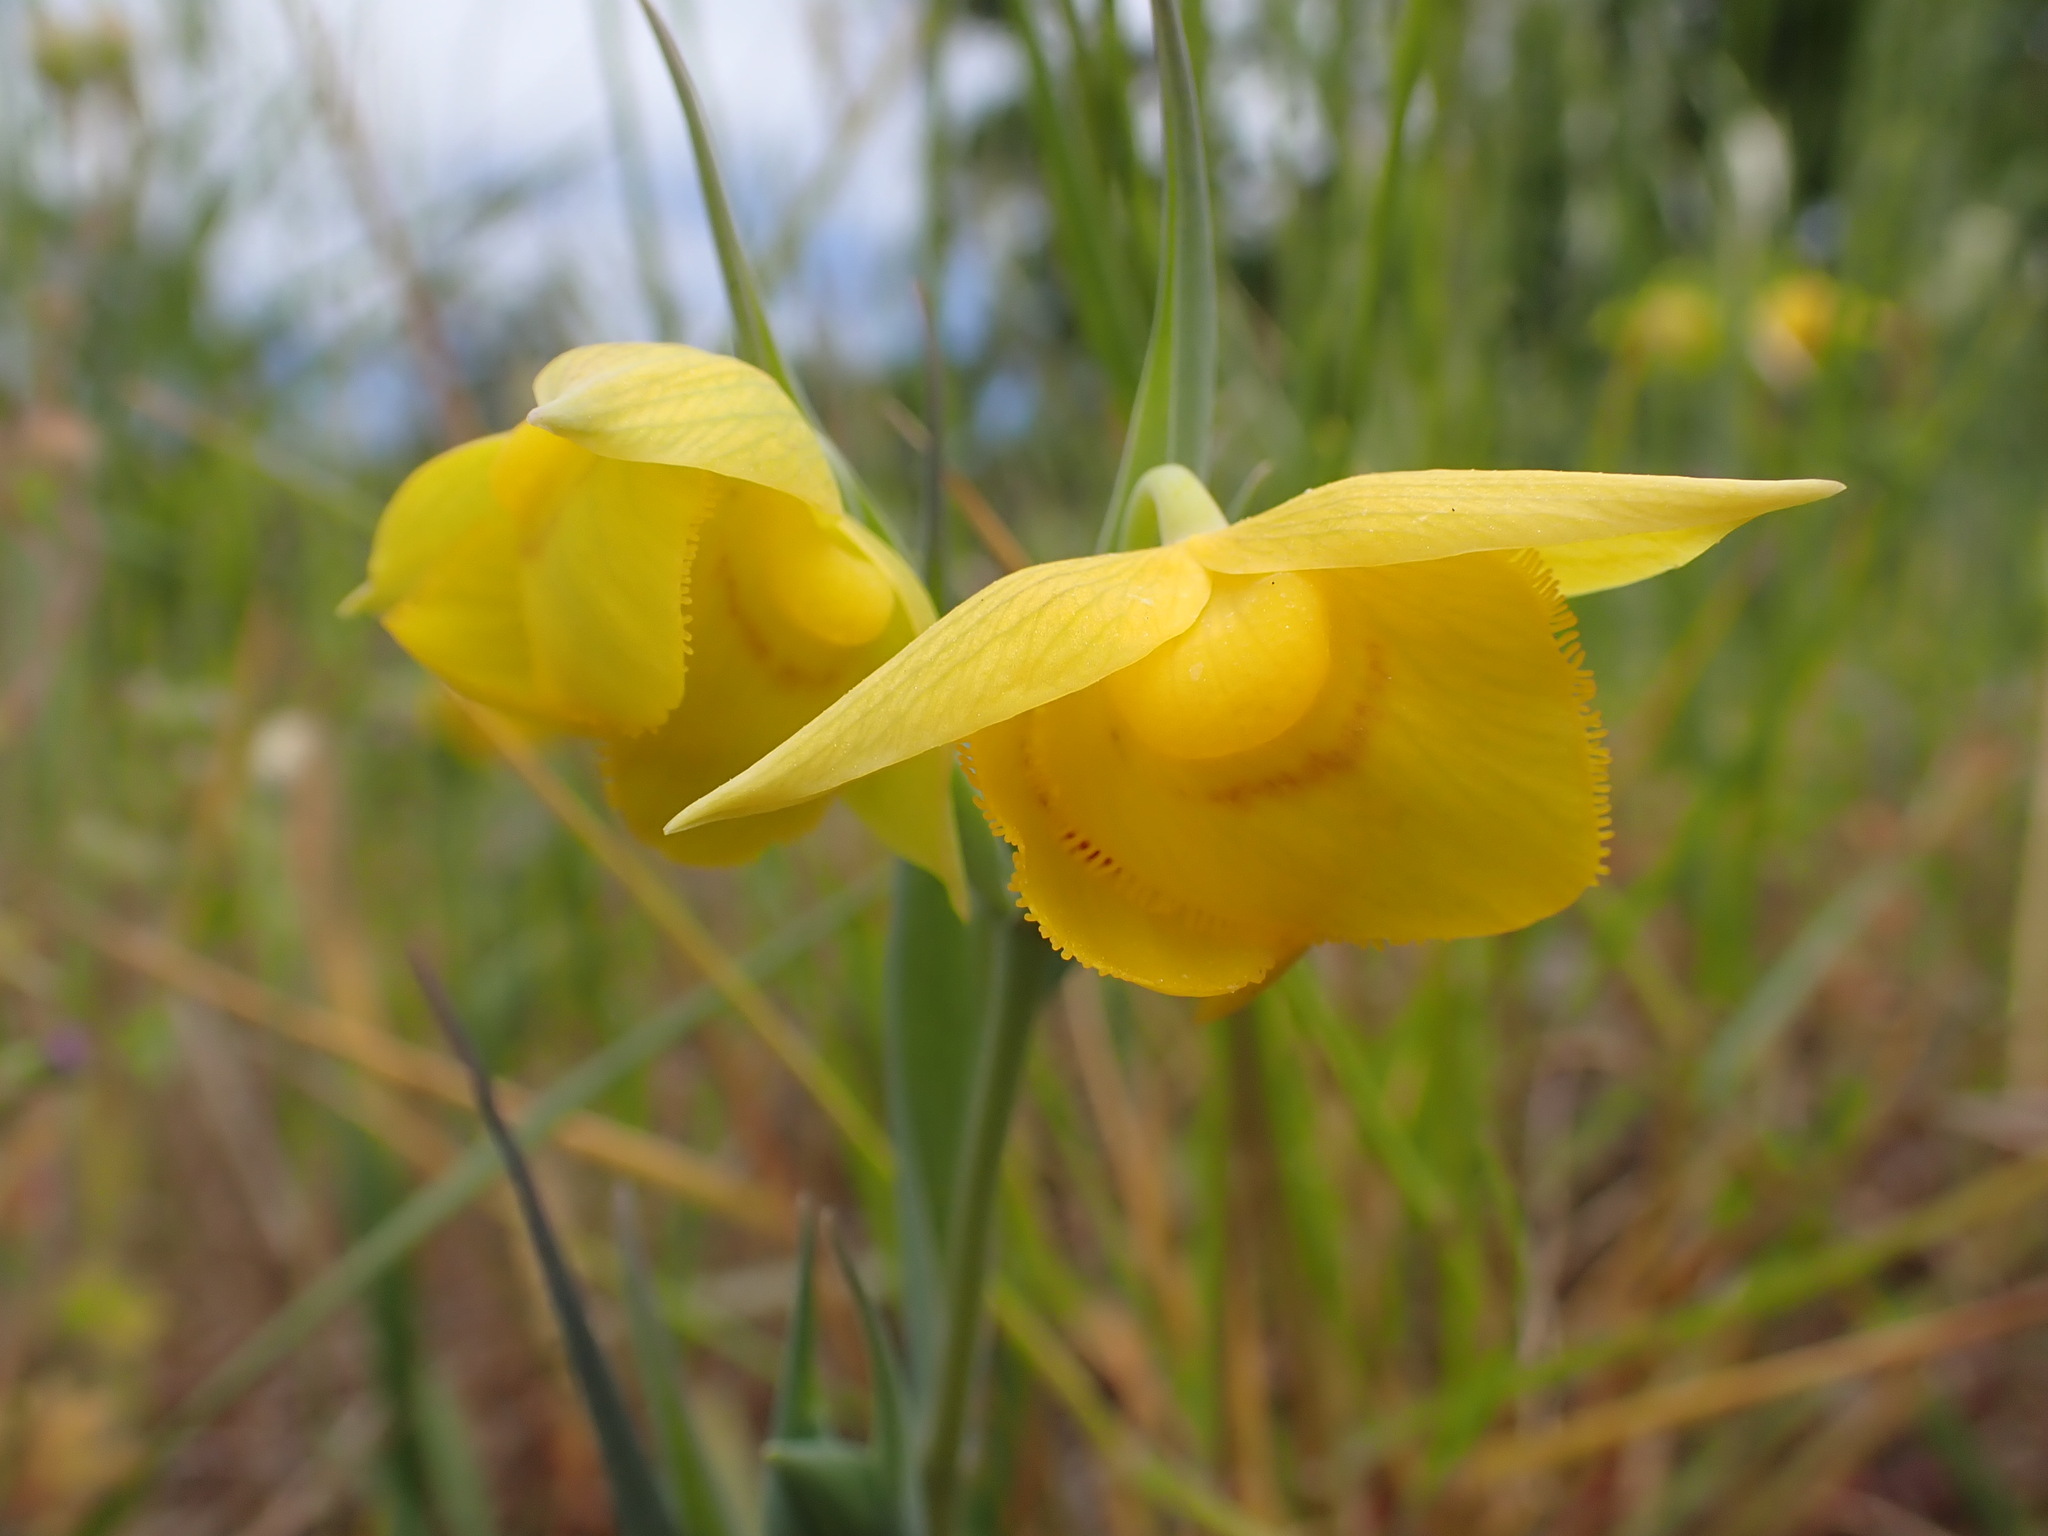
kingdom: Plantae
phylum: Tracheophyta
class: Liliopsida
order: Liliales
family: Liliaceae
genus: Calochortus
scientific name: Calochortus amabilis
